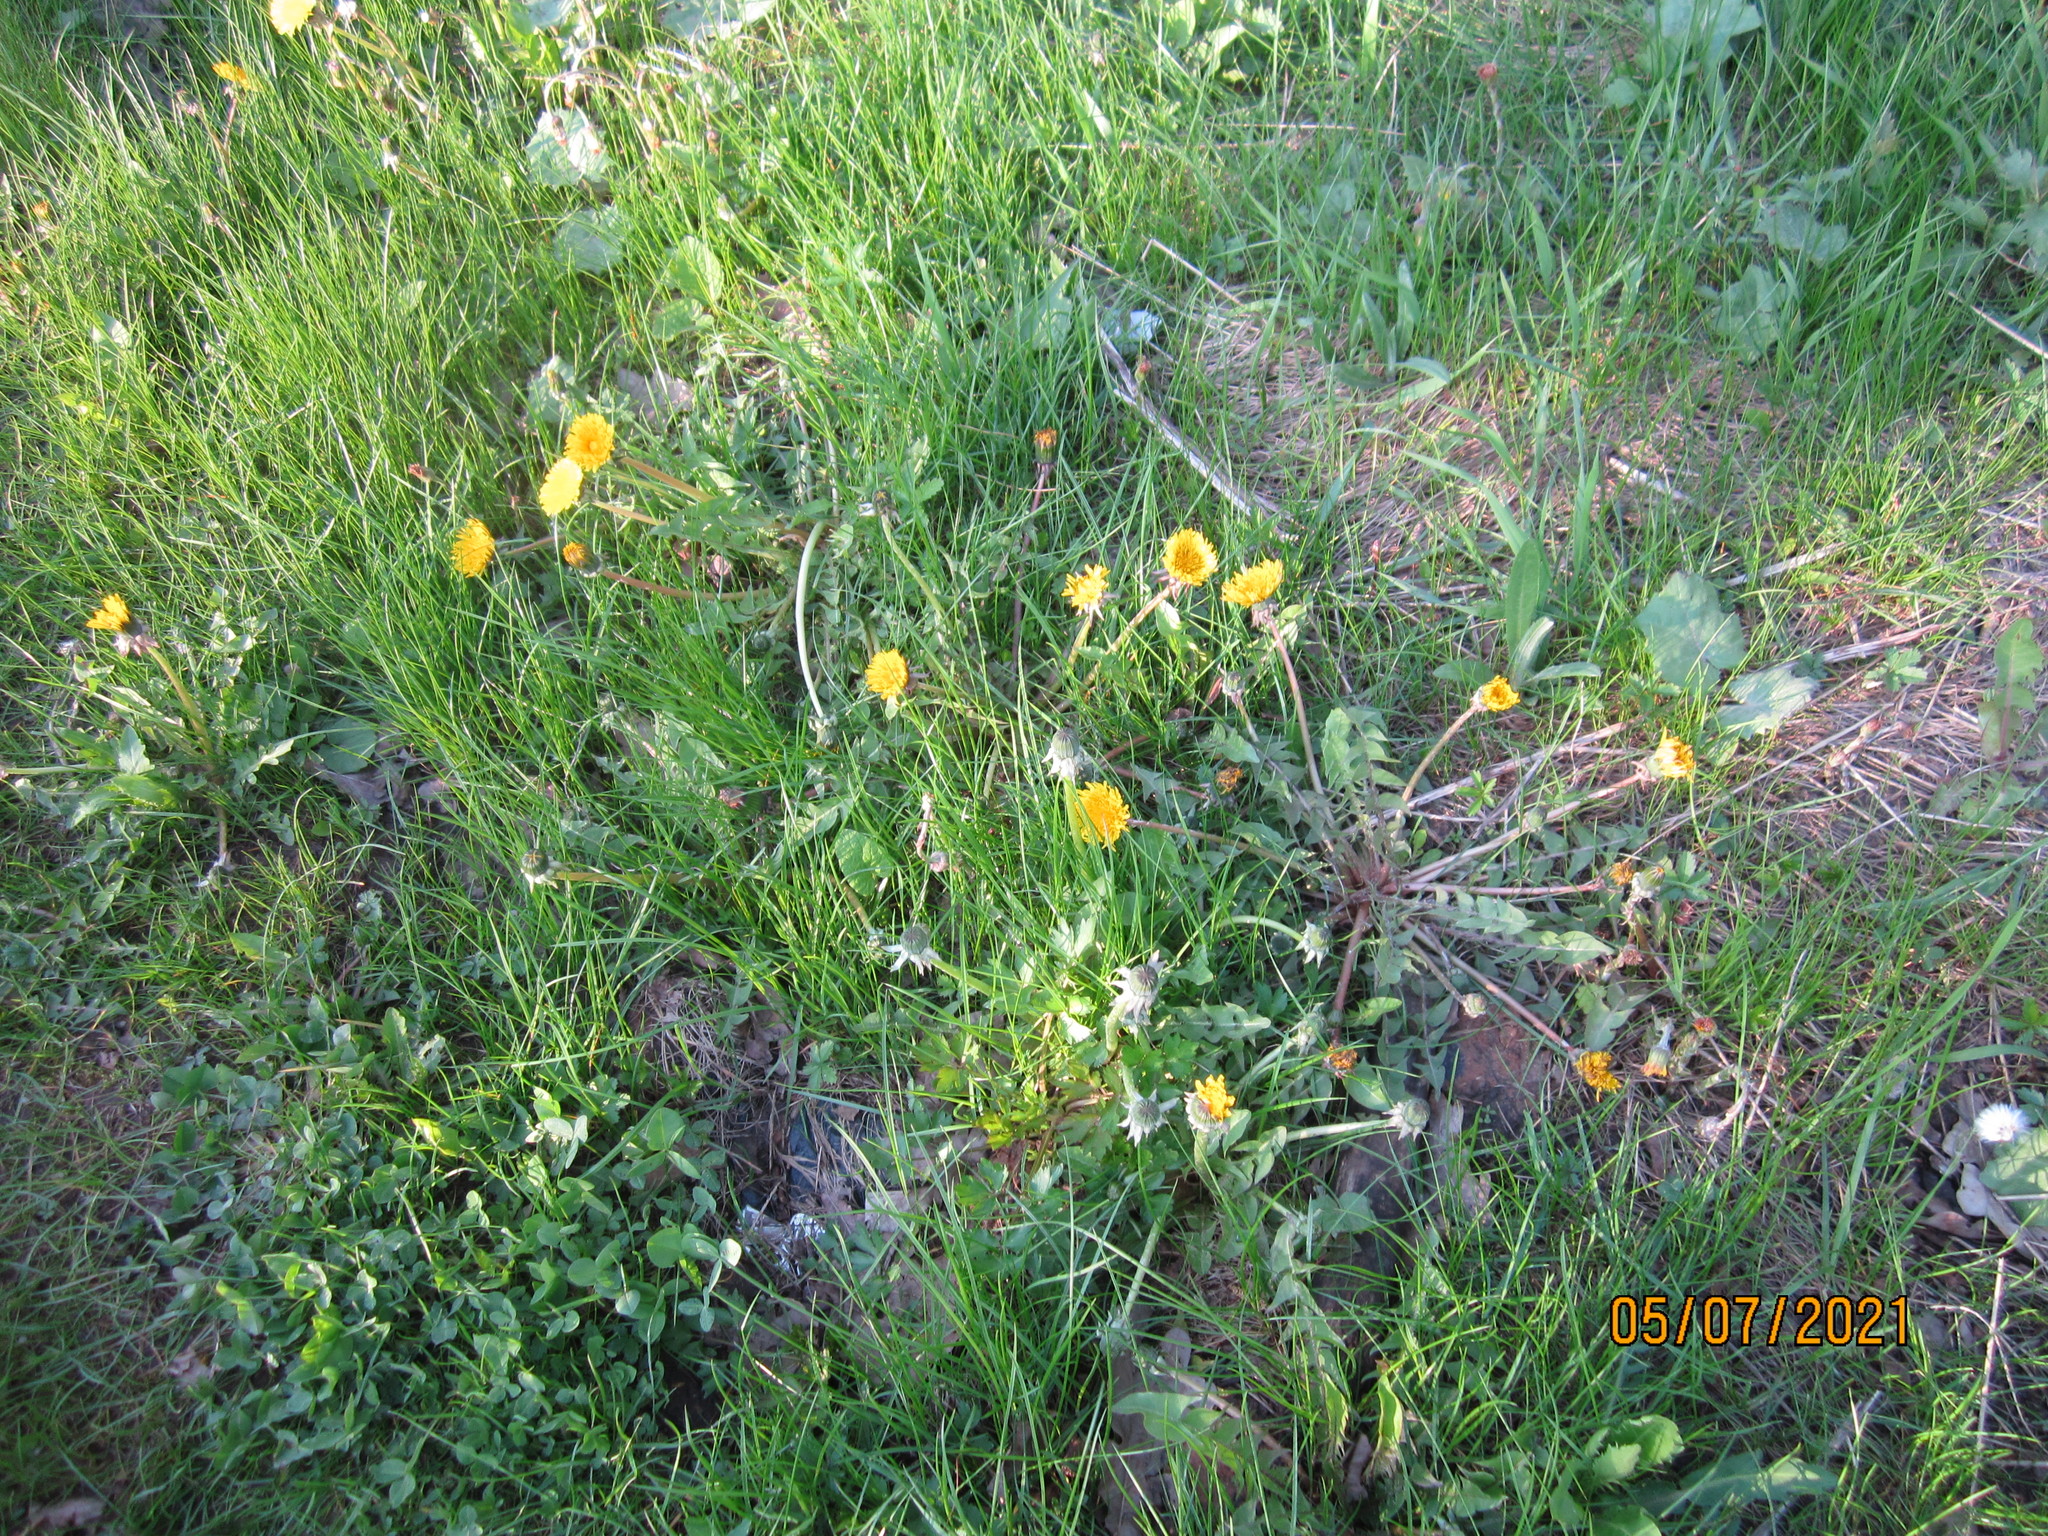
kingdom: Plantae
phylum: Tracheophyta
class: Magnoliopsida
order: Asterales
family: Asteraceae
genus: Taraxacum
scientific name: Taraxacum officinale
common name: Common dandelion
